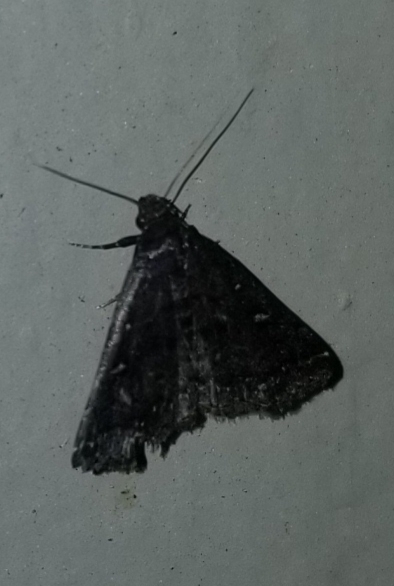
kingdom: Animalia
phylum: Arthropoda
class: Insecta
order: Lepidoptera
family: Erebidae
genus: Tetanolita
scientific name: Tetanolita mynesalis
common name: Smoky tetanolita moth
